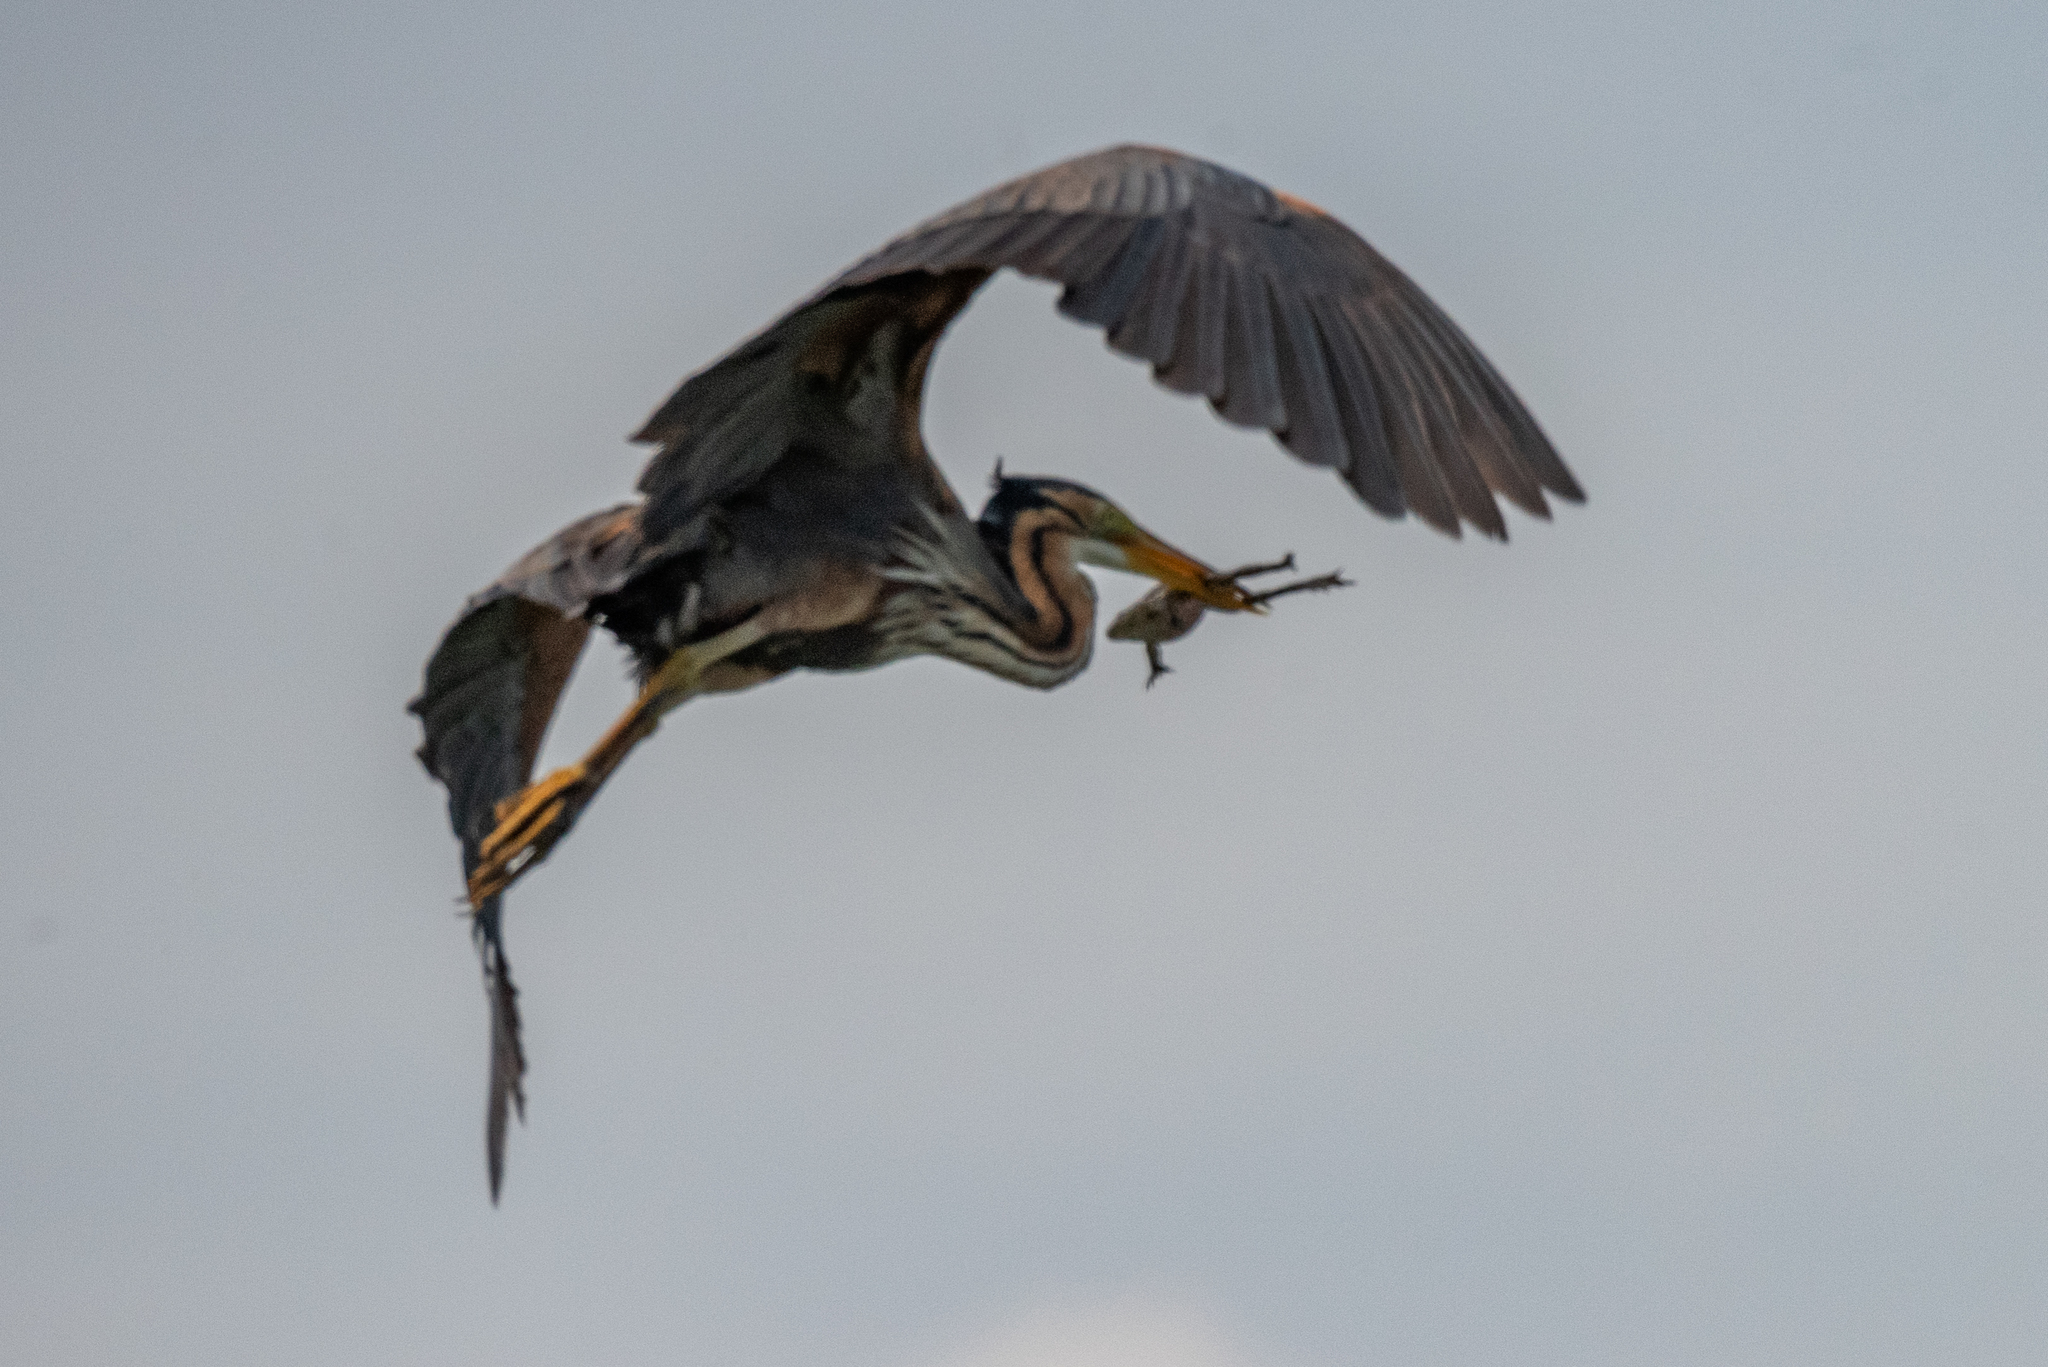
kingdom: Animalia
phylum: Chordata
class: Aves
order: Pelecaniformes
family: Ardeidae
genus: Ardea
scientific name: Ardea purpurea
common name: Purple heron
